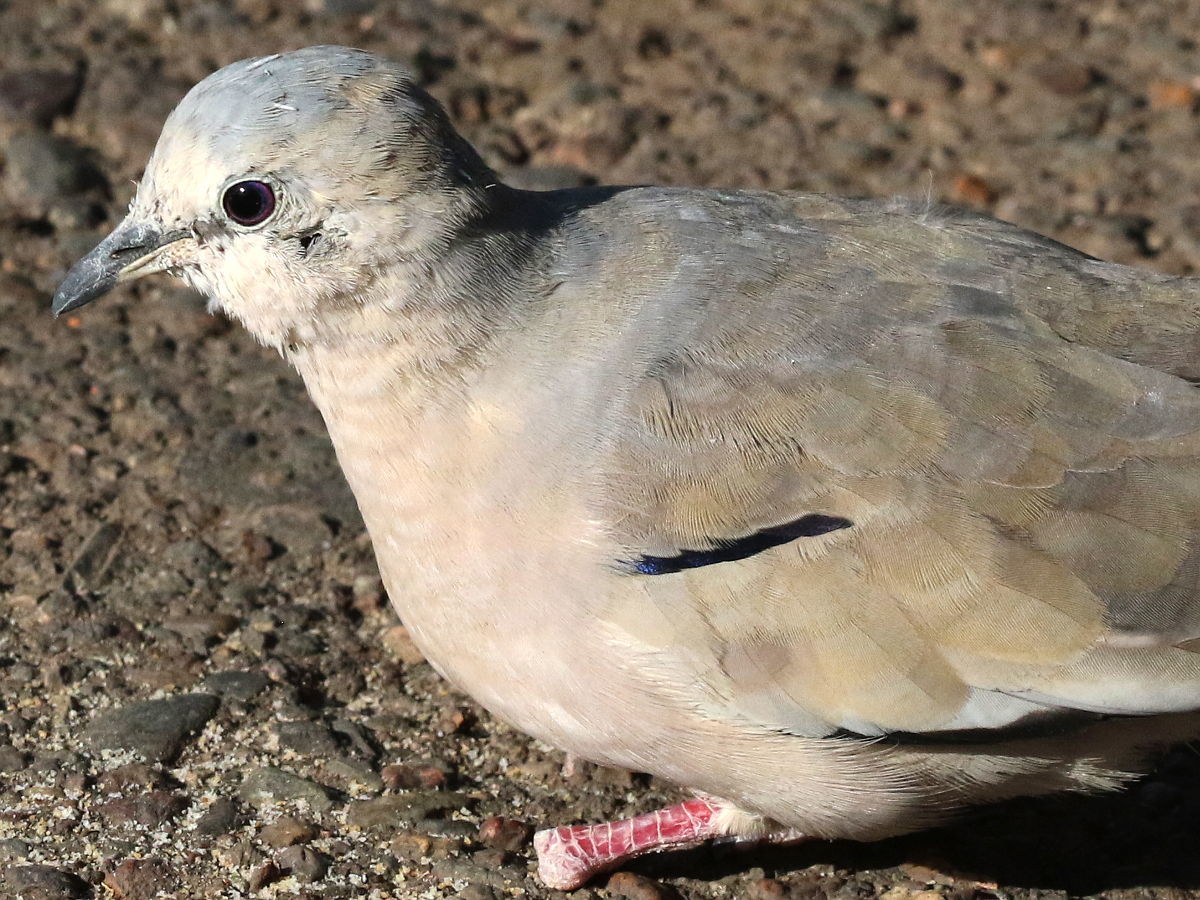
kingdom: Animalia
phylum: Chordata
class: Aves
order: Columbiformes
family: Columbidae
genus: Columbina
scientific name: Columbina picui
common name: Picui ground dove
